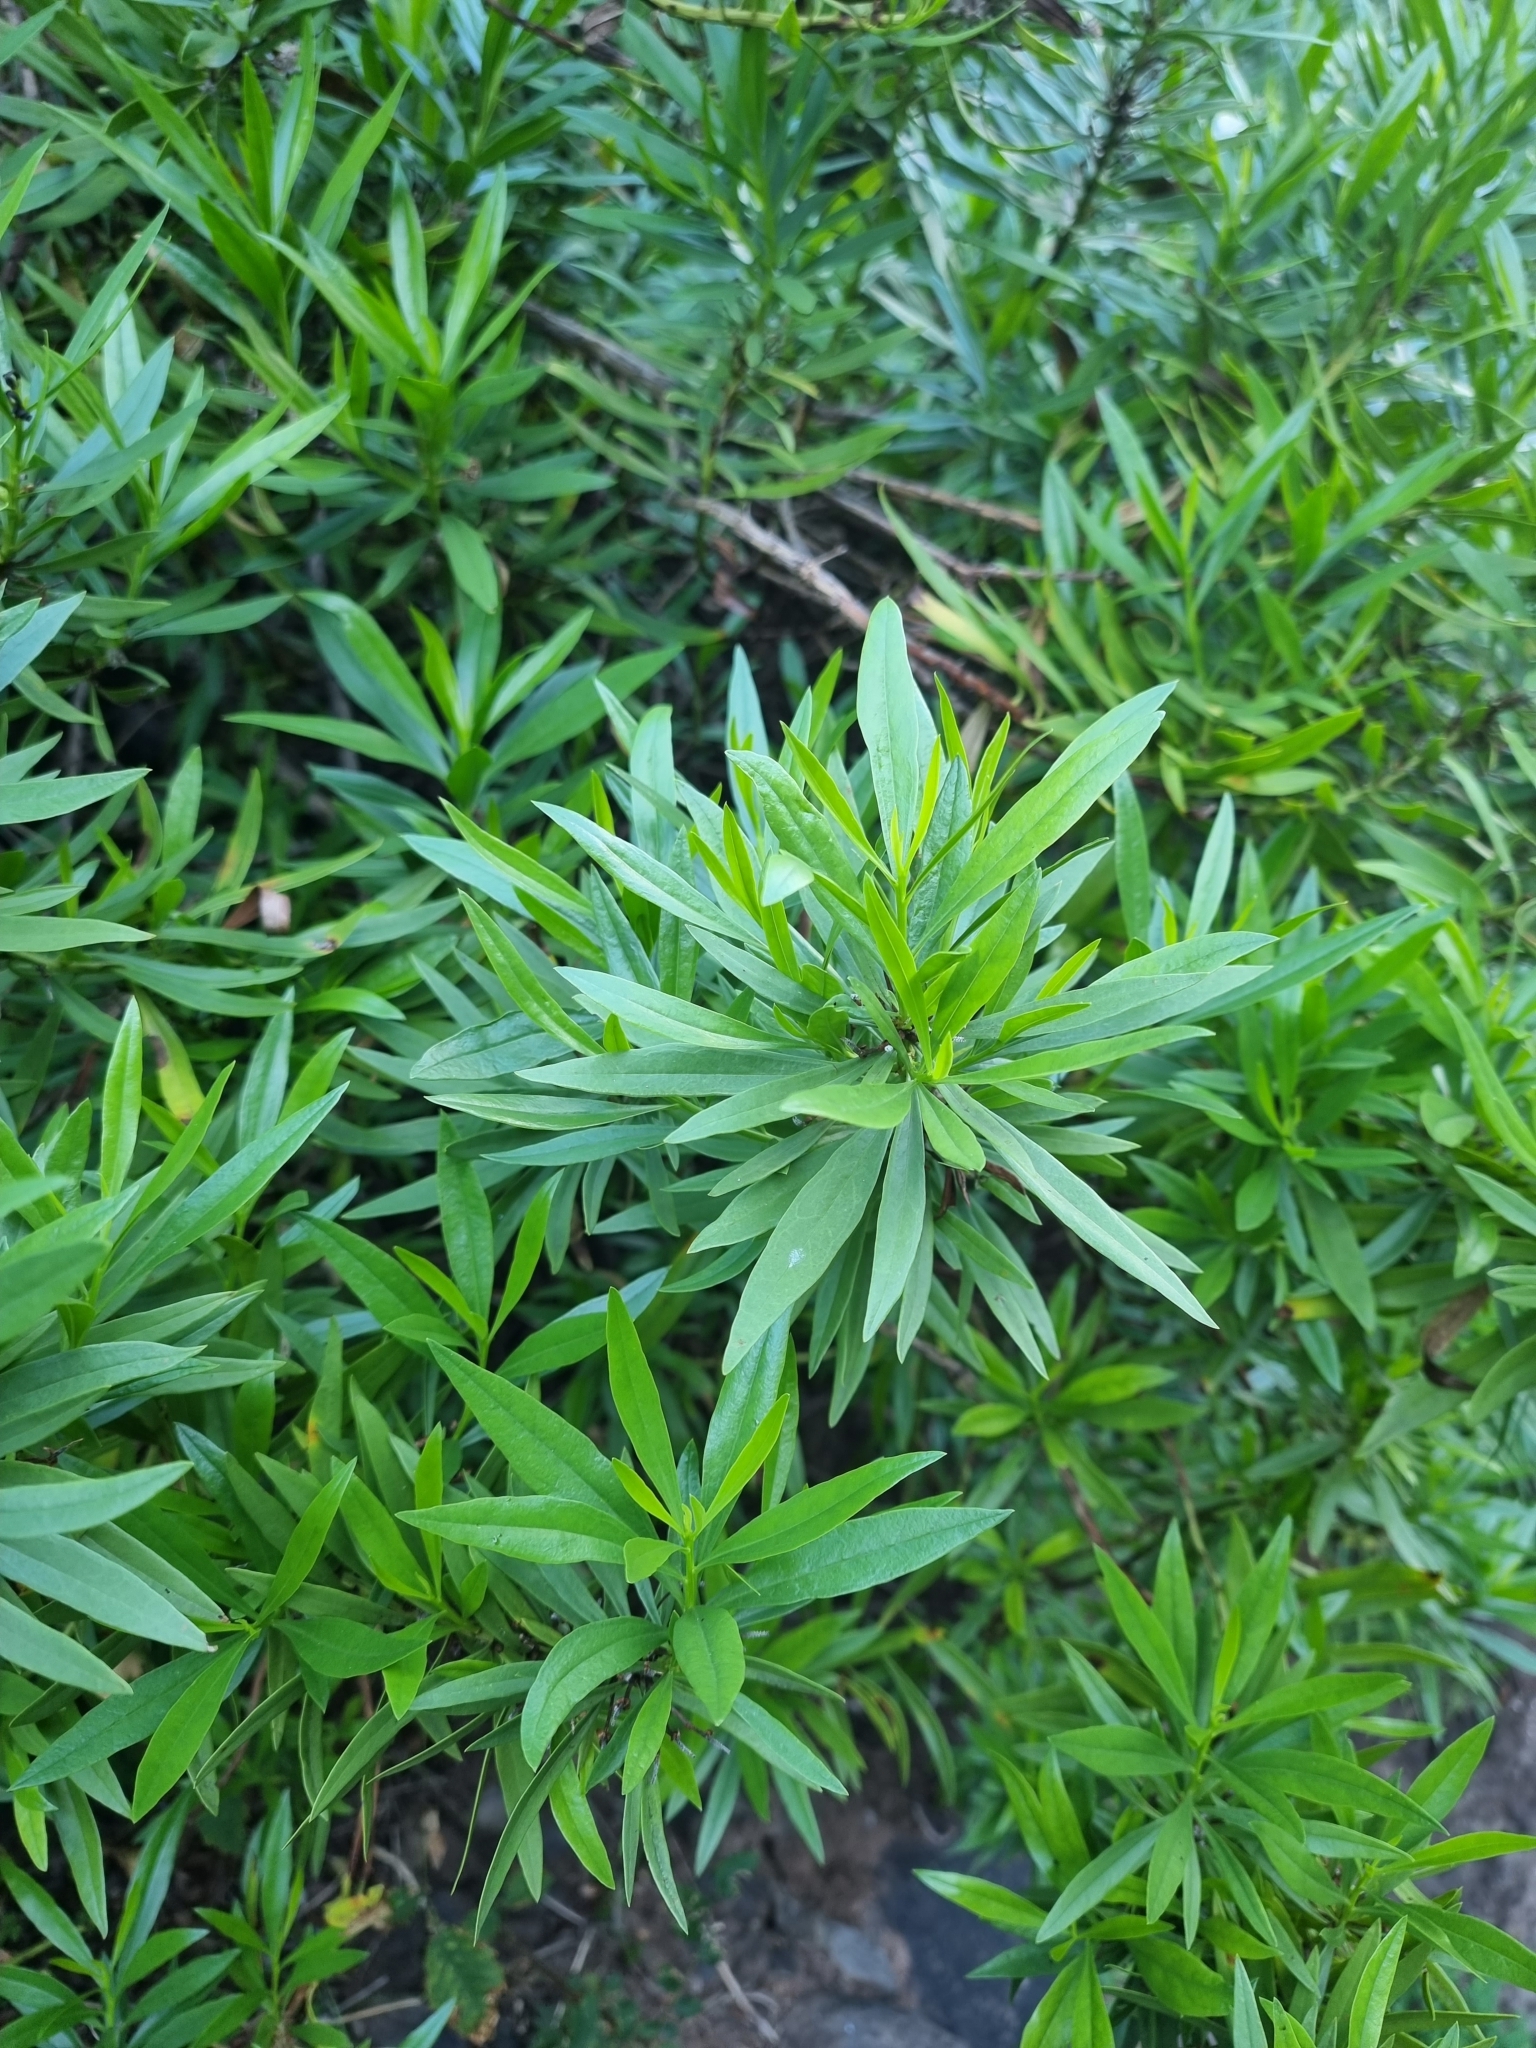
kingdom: Plantae
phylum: Tracheophyta
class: Magnoliopsida
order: Lamiales
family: Plantaginaceae
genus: Globularia
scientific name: Globularia salicina
